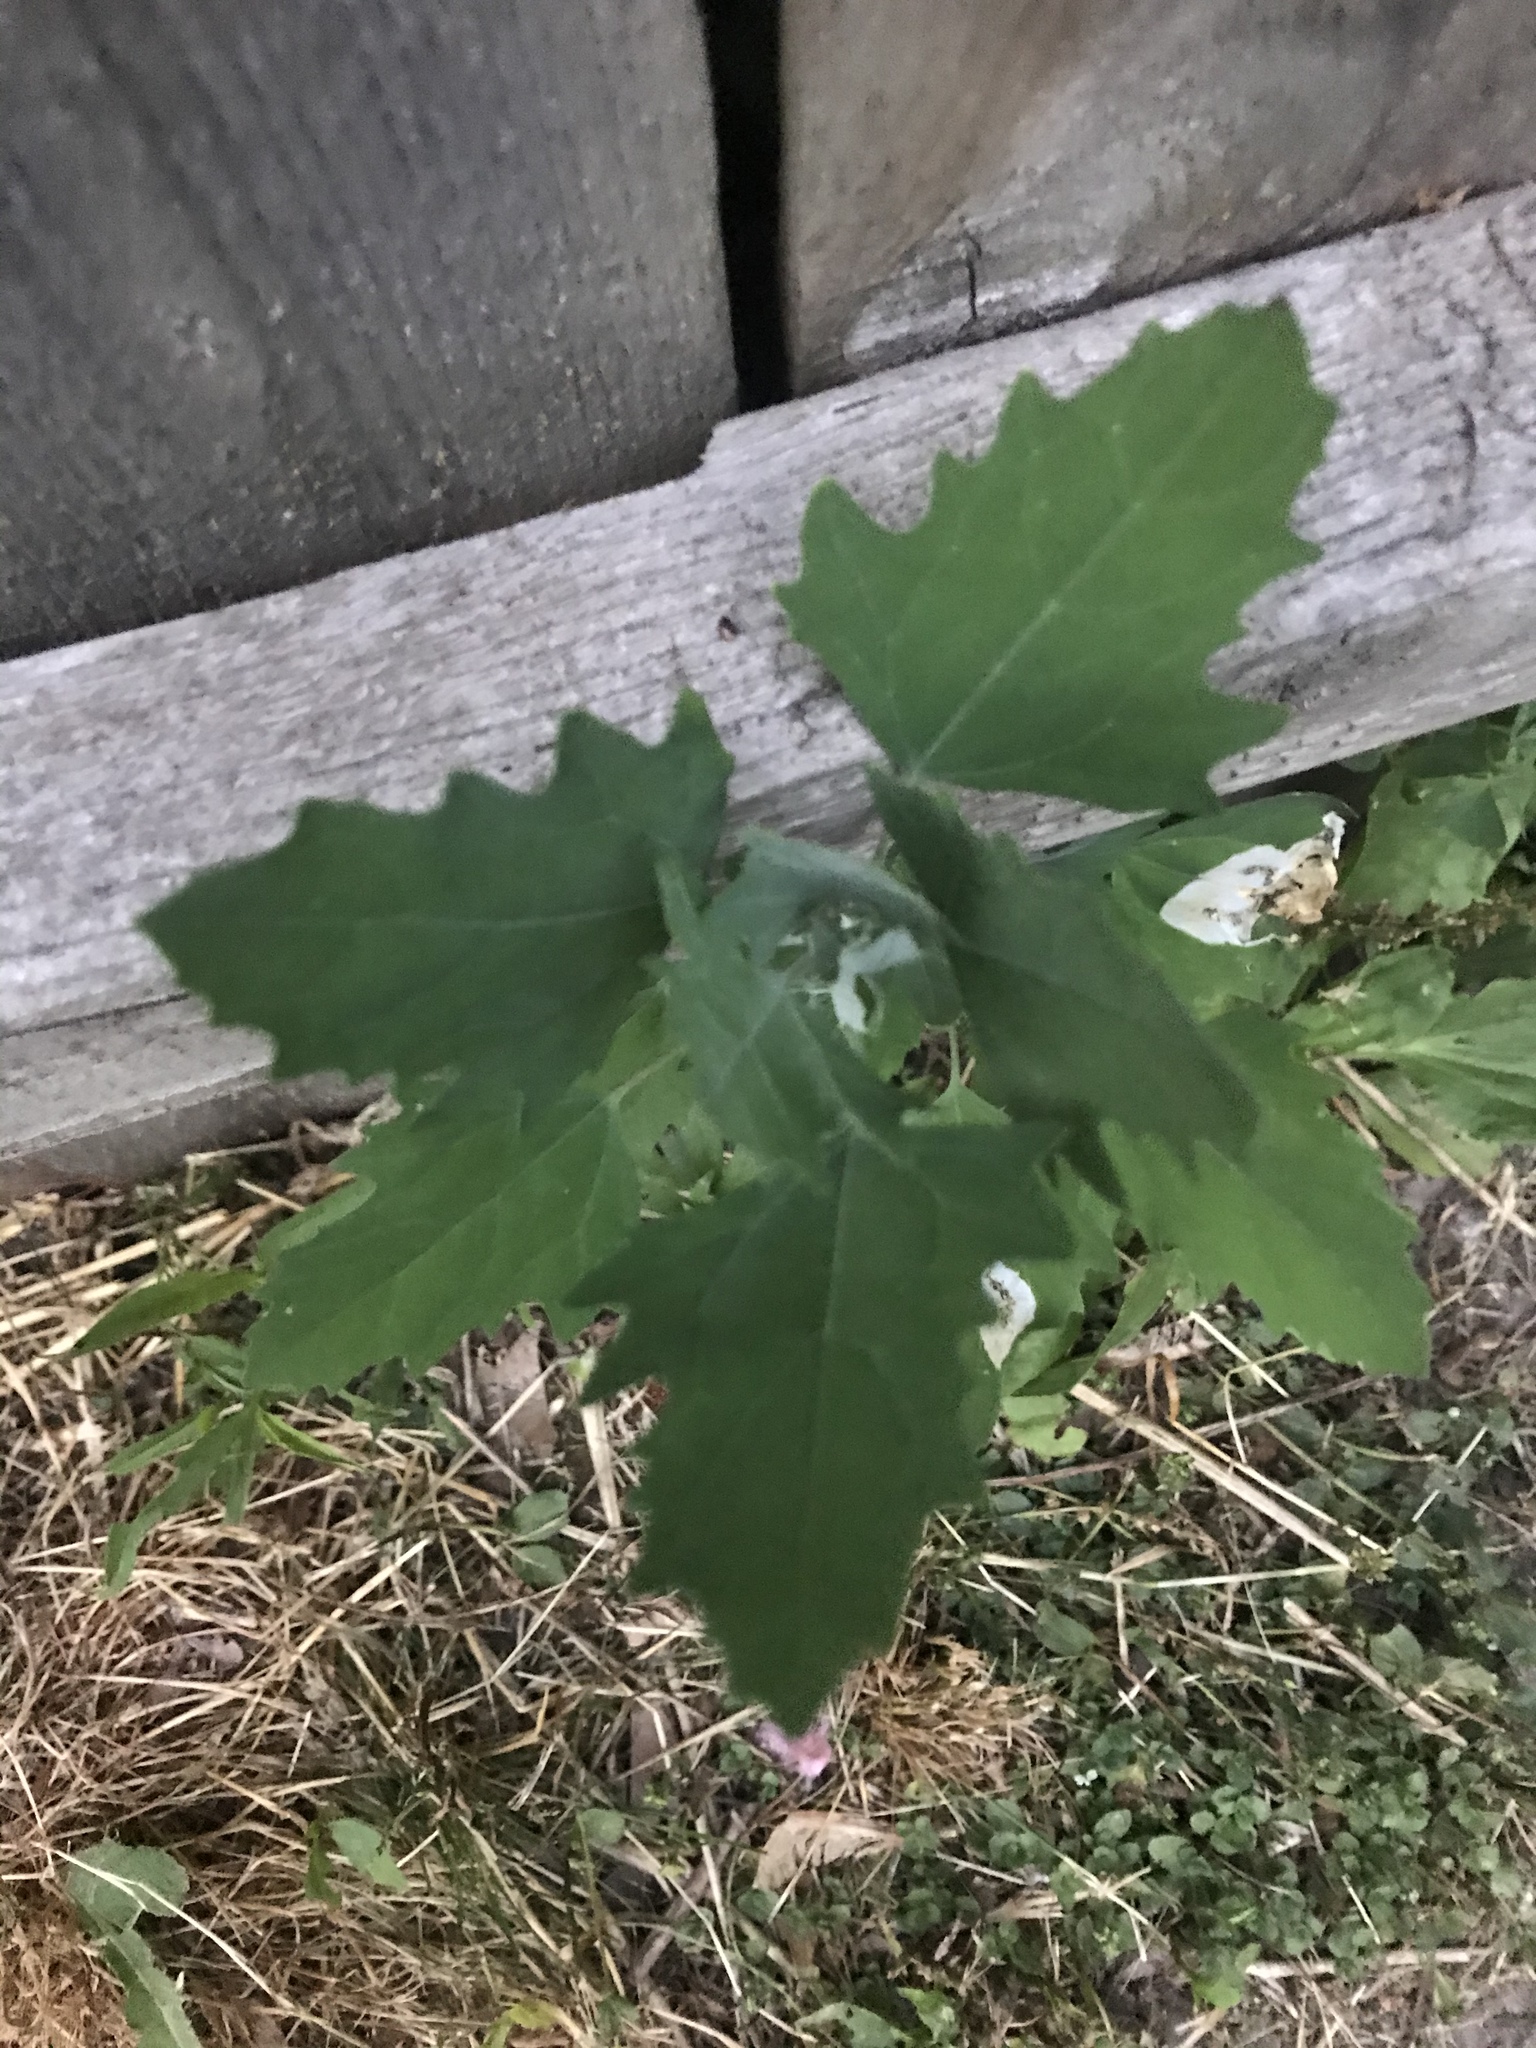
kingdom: Plantae
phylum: Tracheophyta
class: Magnoliopsida
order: Caryophyllales
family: Amaranthaceae
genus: Chenopodium
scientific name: Chenopodium album
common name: Fat-hen
